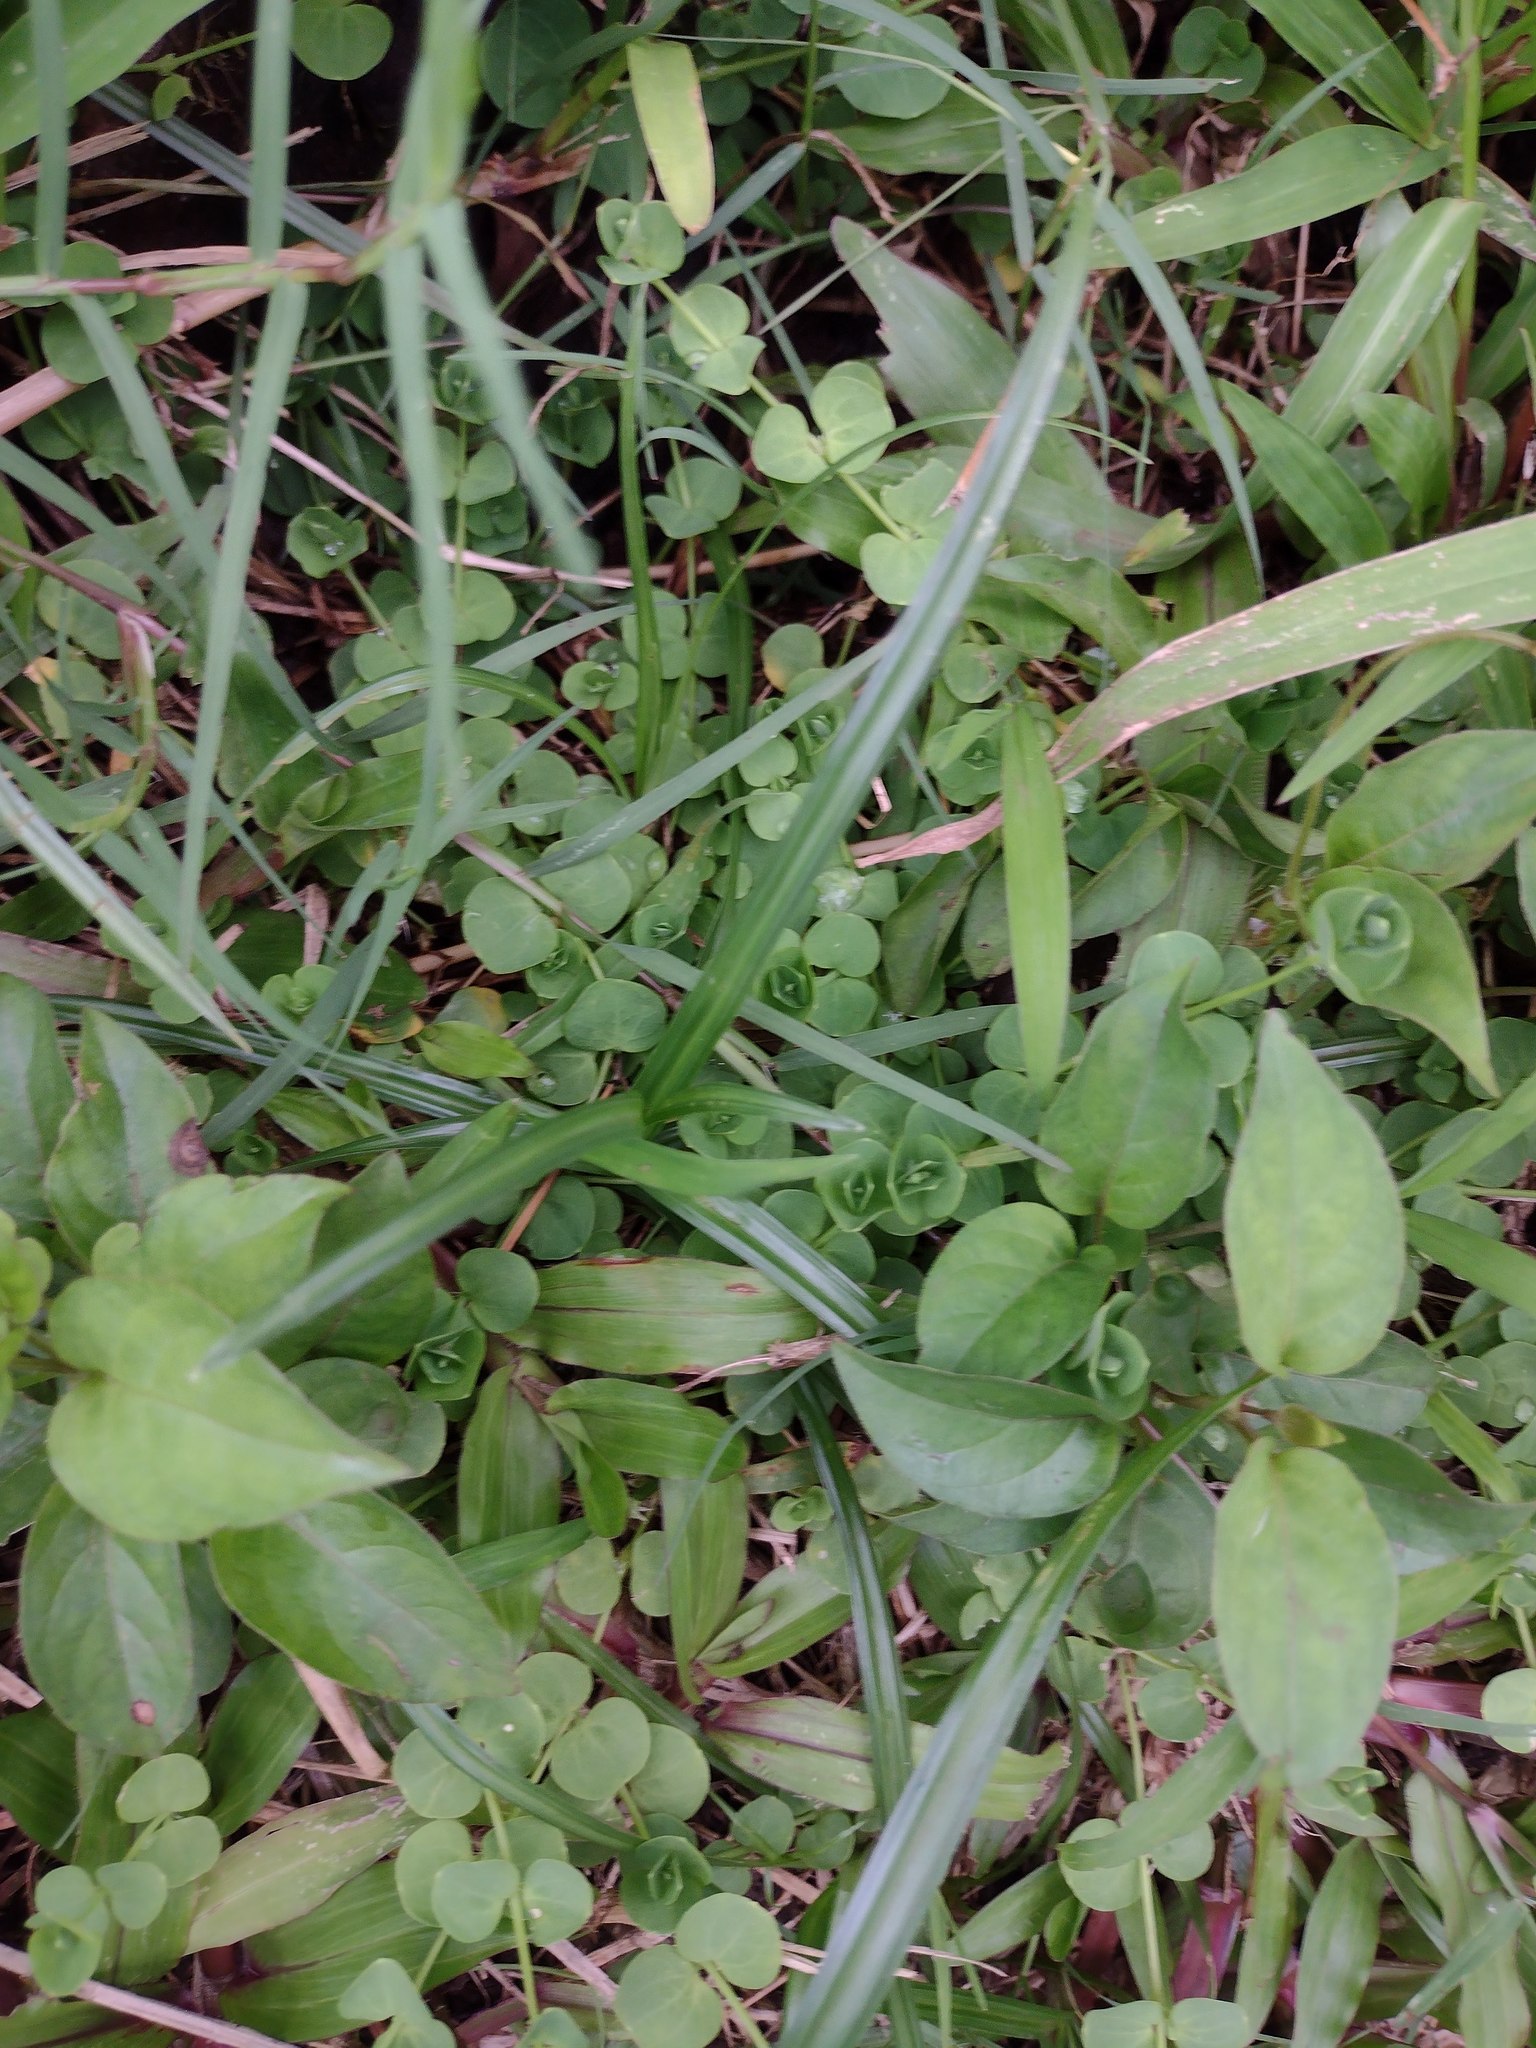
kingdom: Plantae
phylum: Tracheophyta
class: Magnoliopsida
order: Caryophyllales
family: Caryophyllaceae
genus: Drymaria
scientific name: Drymaria cordata
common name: Whitesnow
